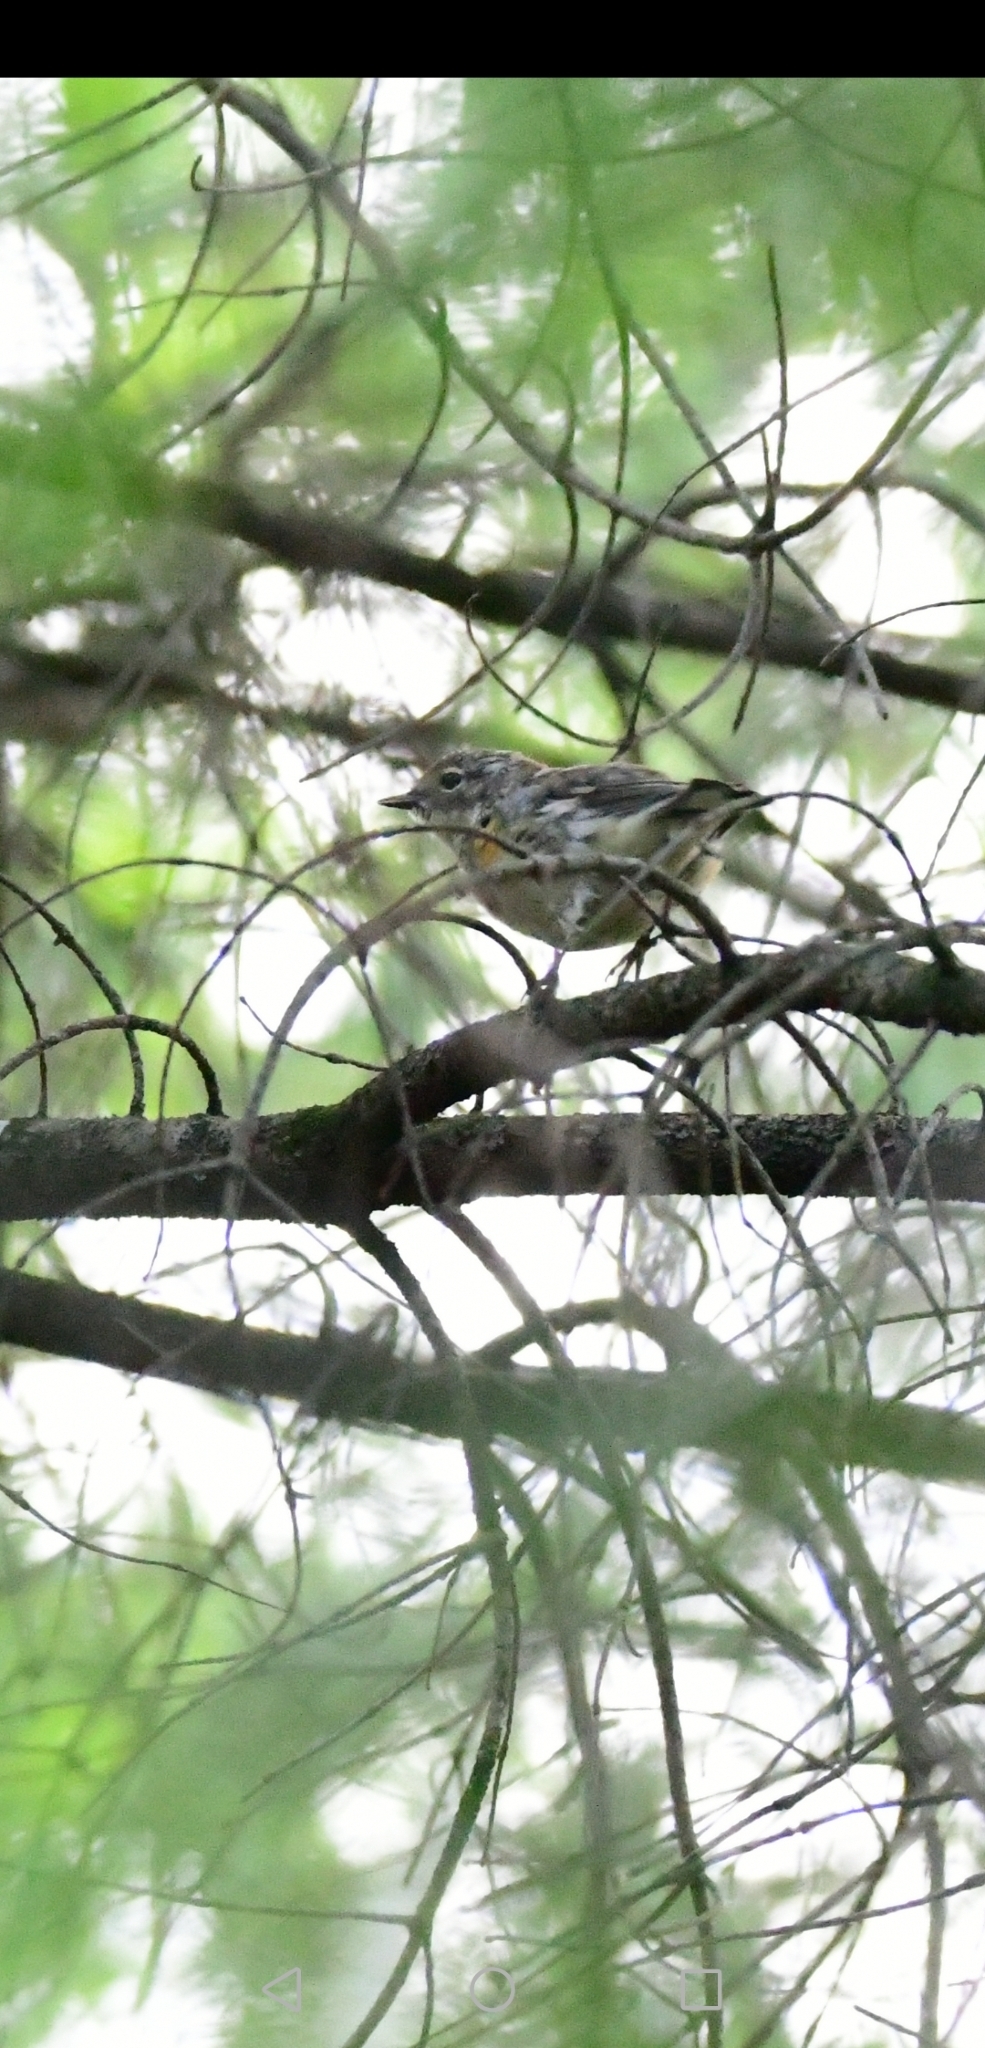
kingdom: Animalia
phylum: Chordata
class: Aves
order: Passeriformes
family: Parulidae
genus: Setophaga
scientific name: Setophaga coronata
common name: Myrtle warbler
